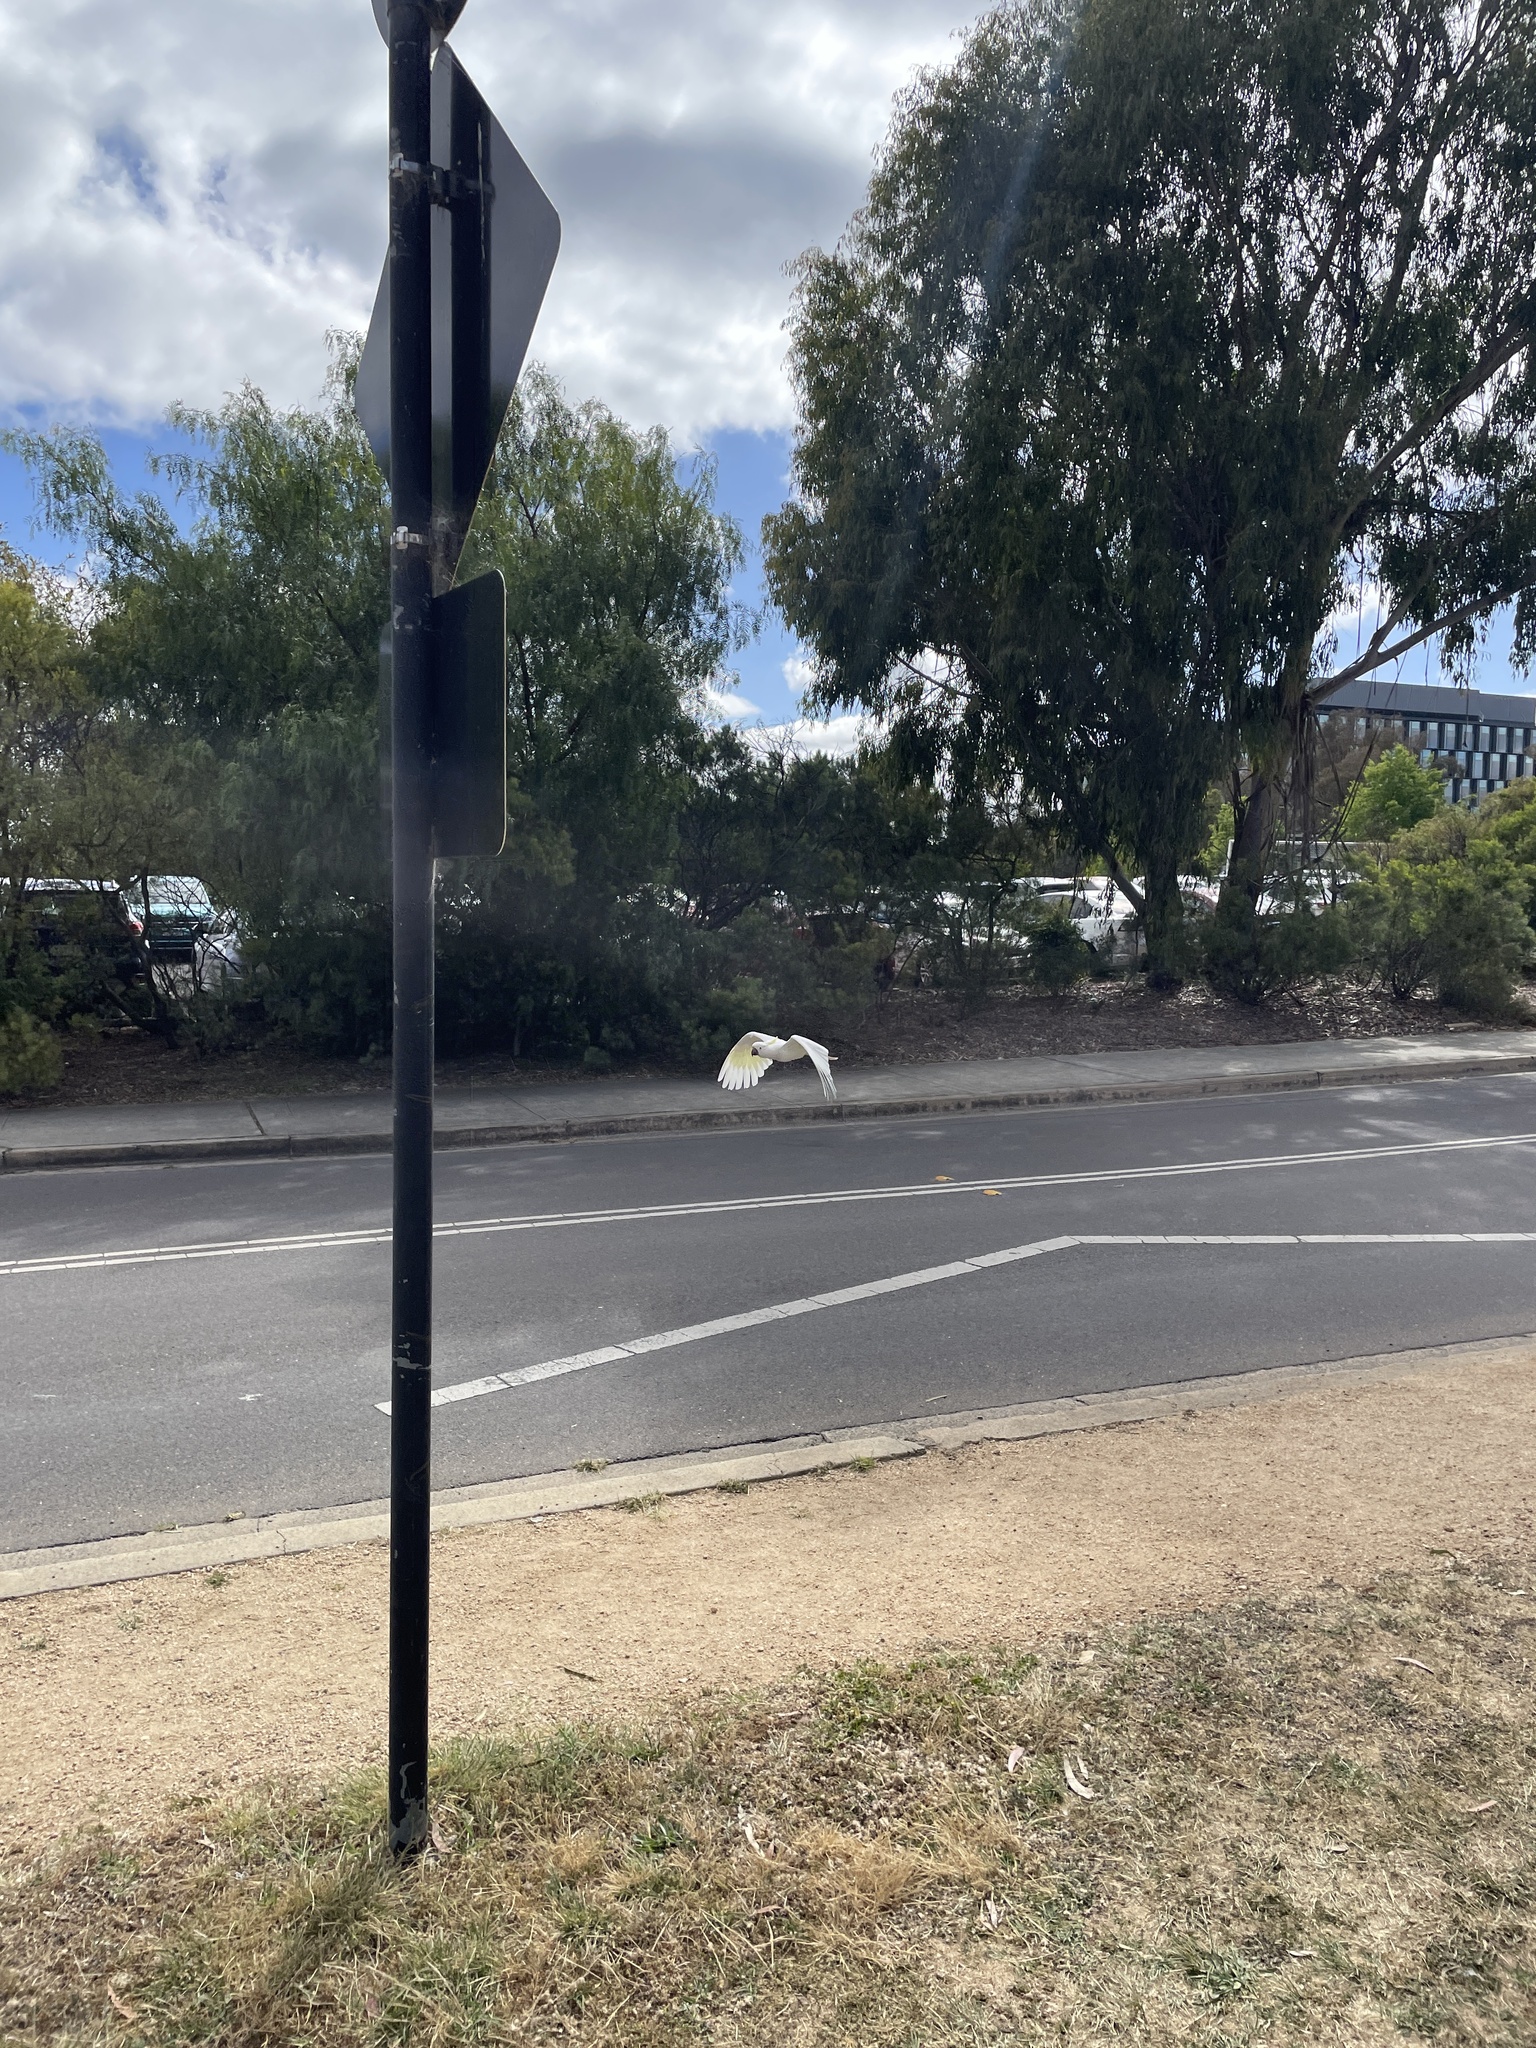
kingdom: Animalia
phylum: Chordata
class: Aves
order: Psittaciformes
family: Psittacidae
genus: Cacatua
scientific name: Cacatua galerita
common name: Sulphur-crested cockatoo
